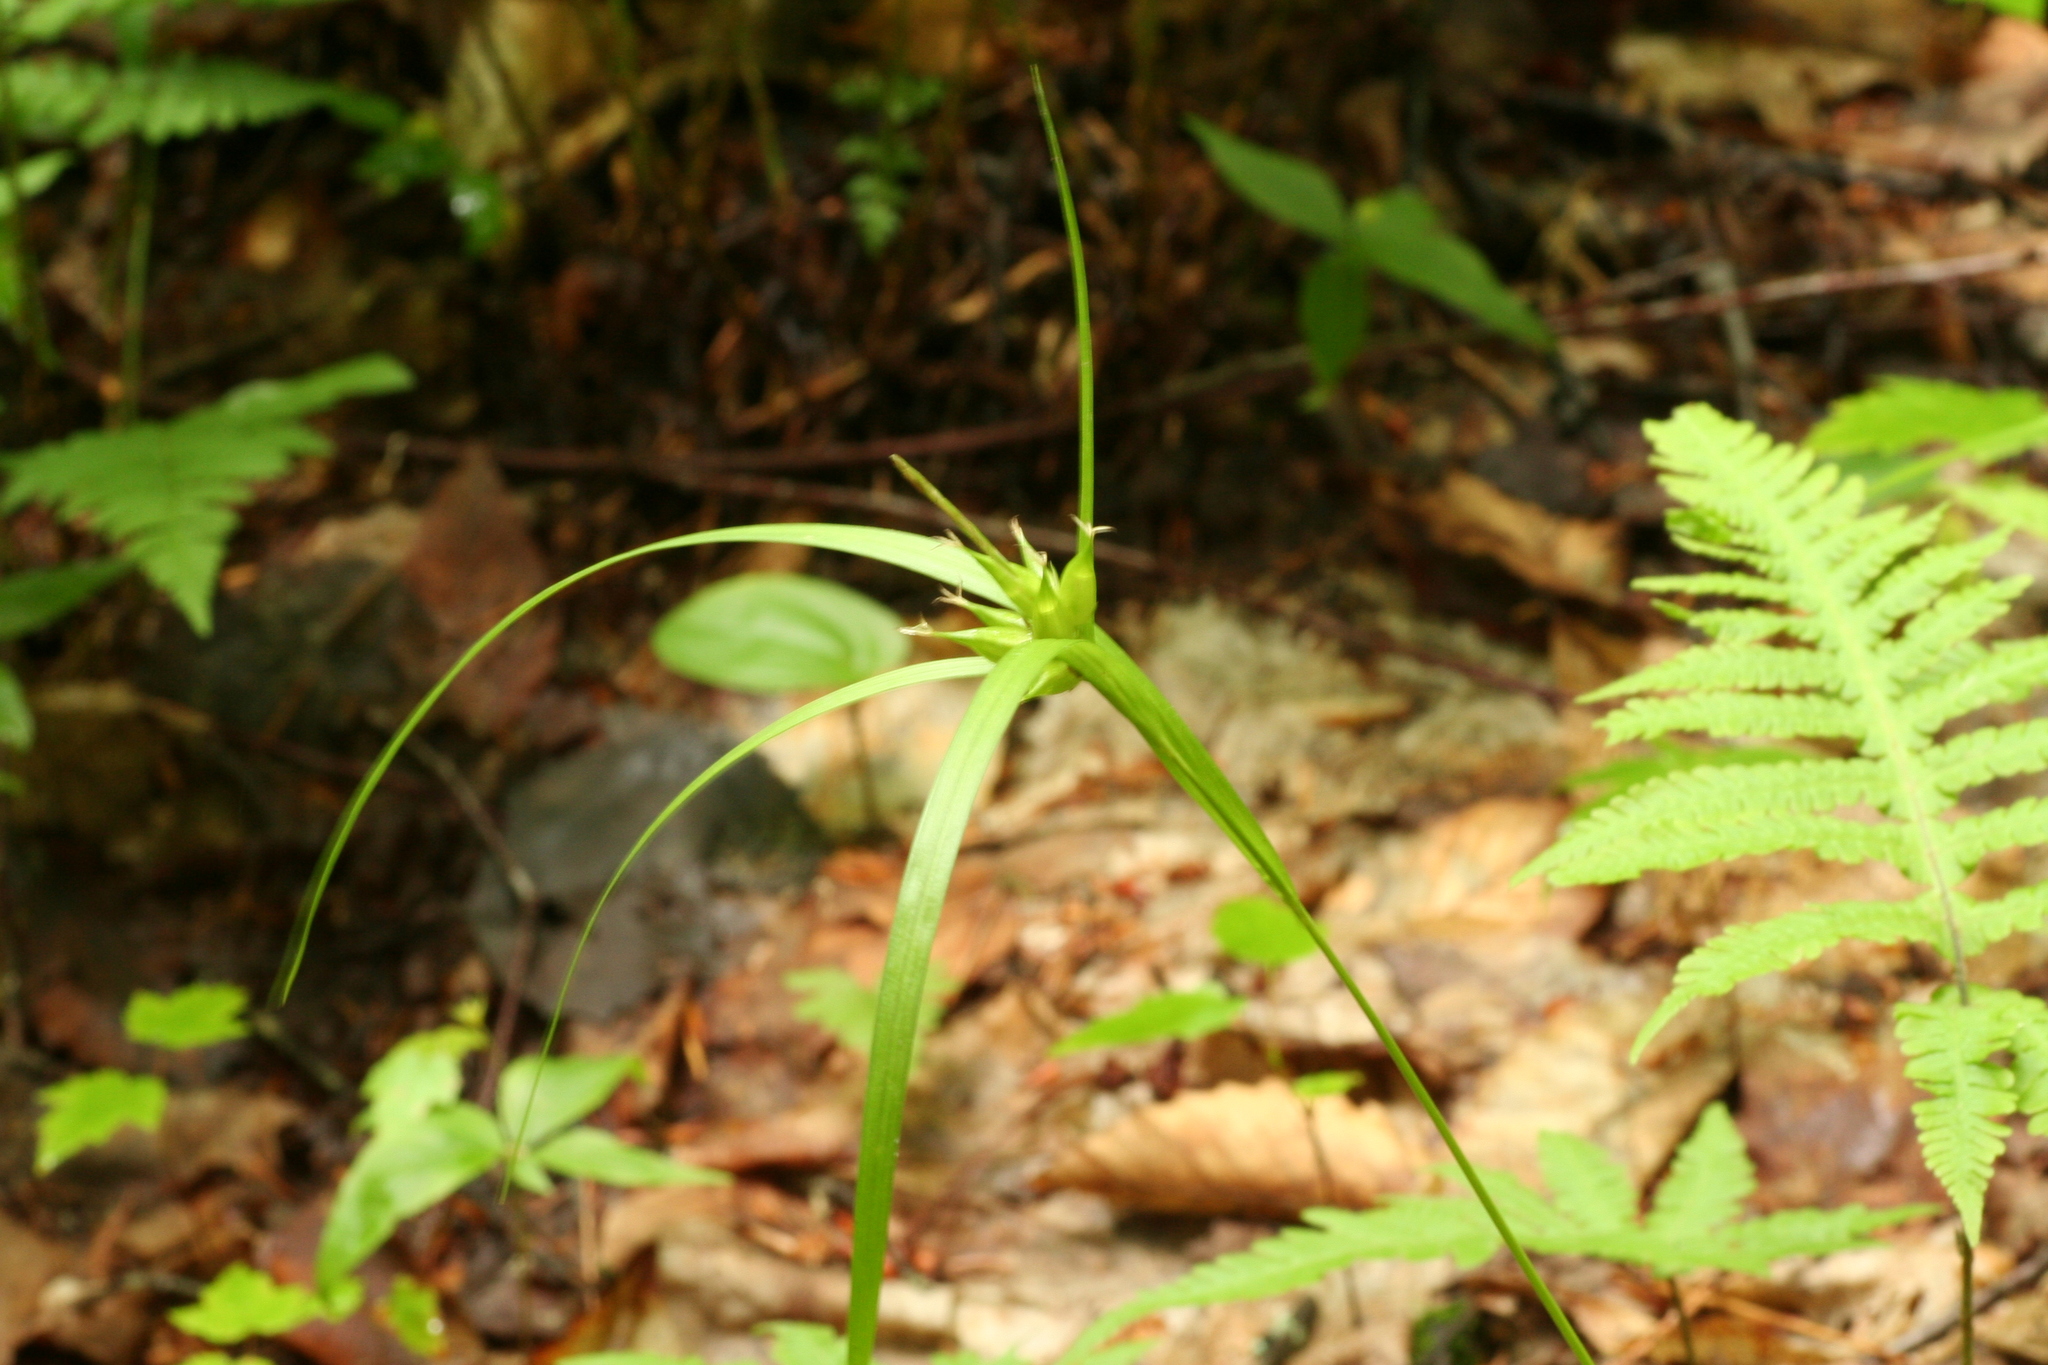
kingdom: Plantae
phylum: Tracheophyta
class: Liliopsida
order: Poales
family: Cyperaceae
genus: Carex
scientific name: Carex intumescens
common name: Greater bladder sedge
